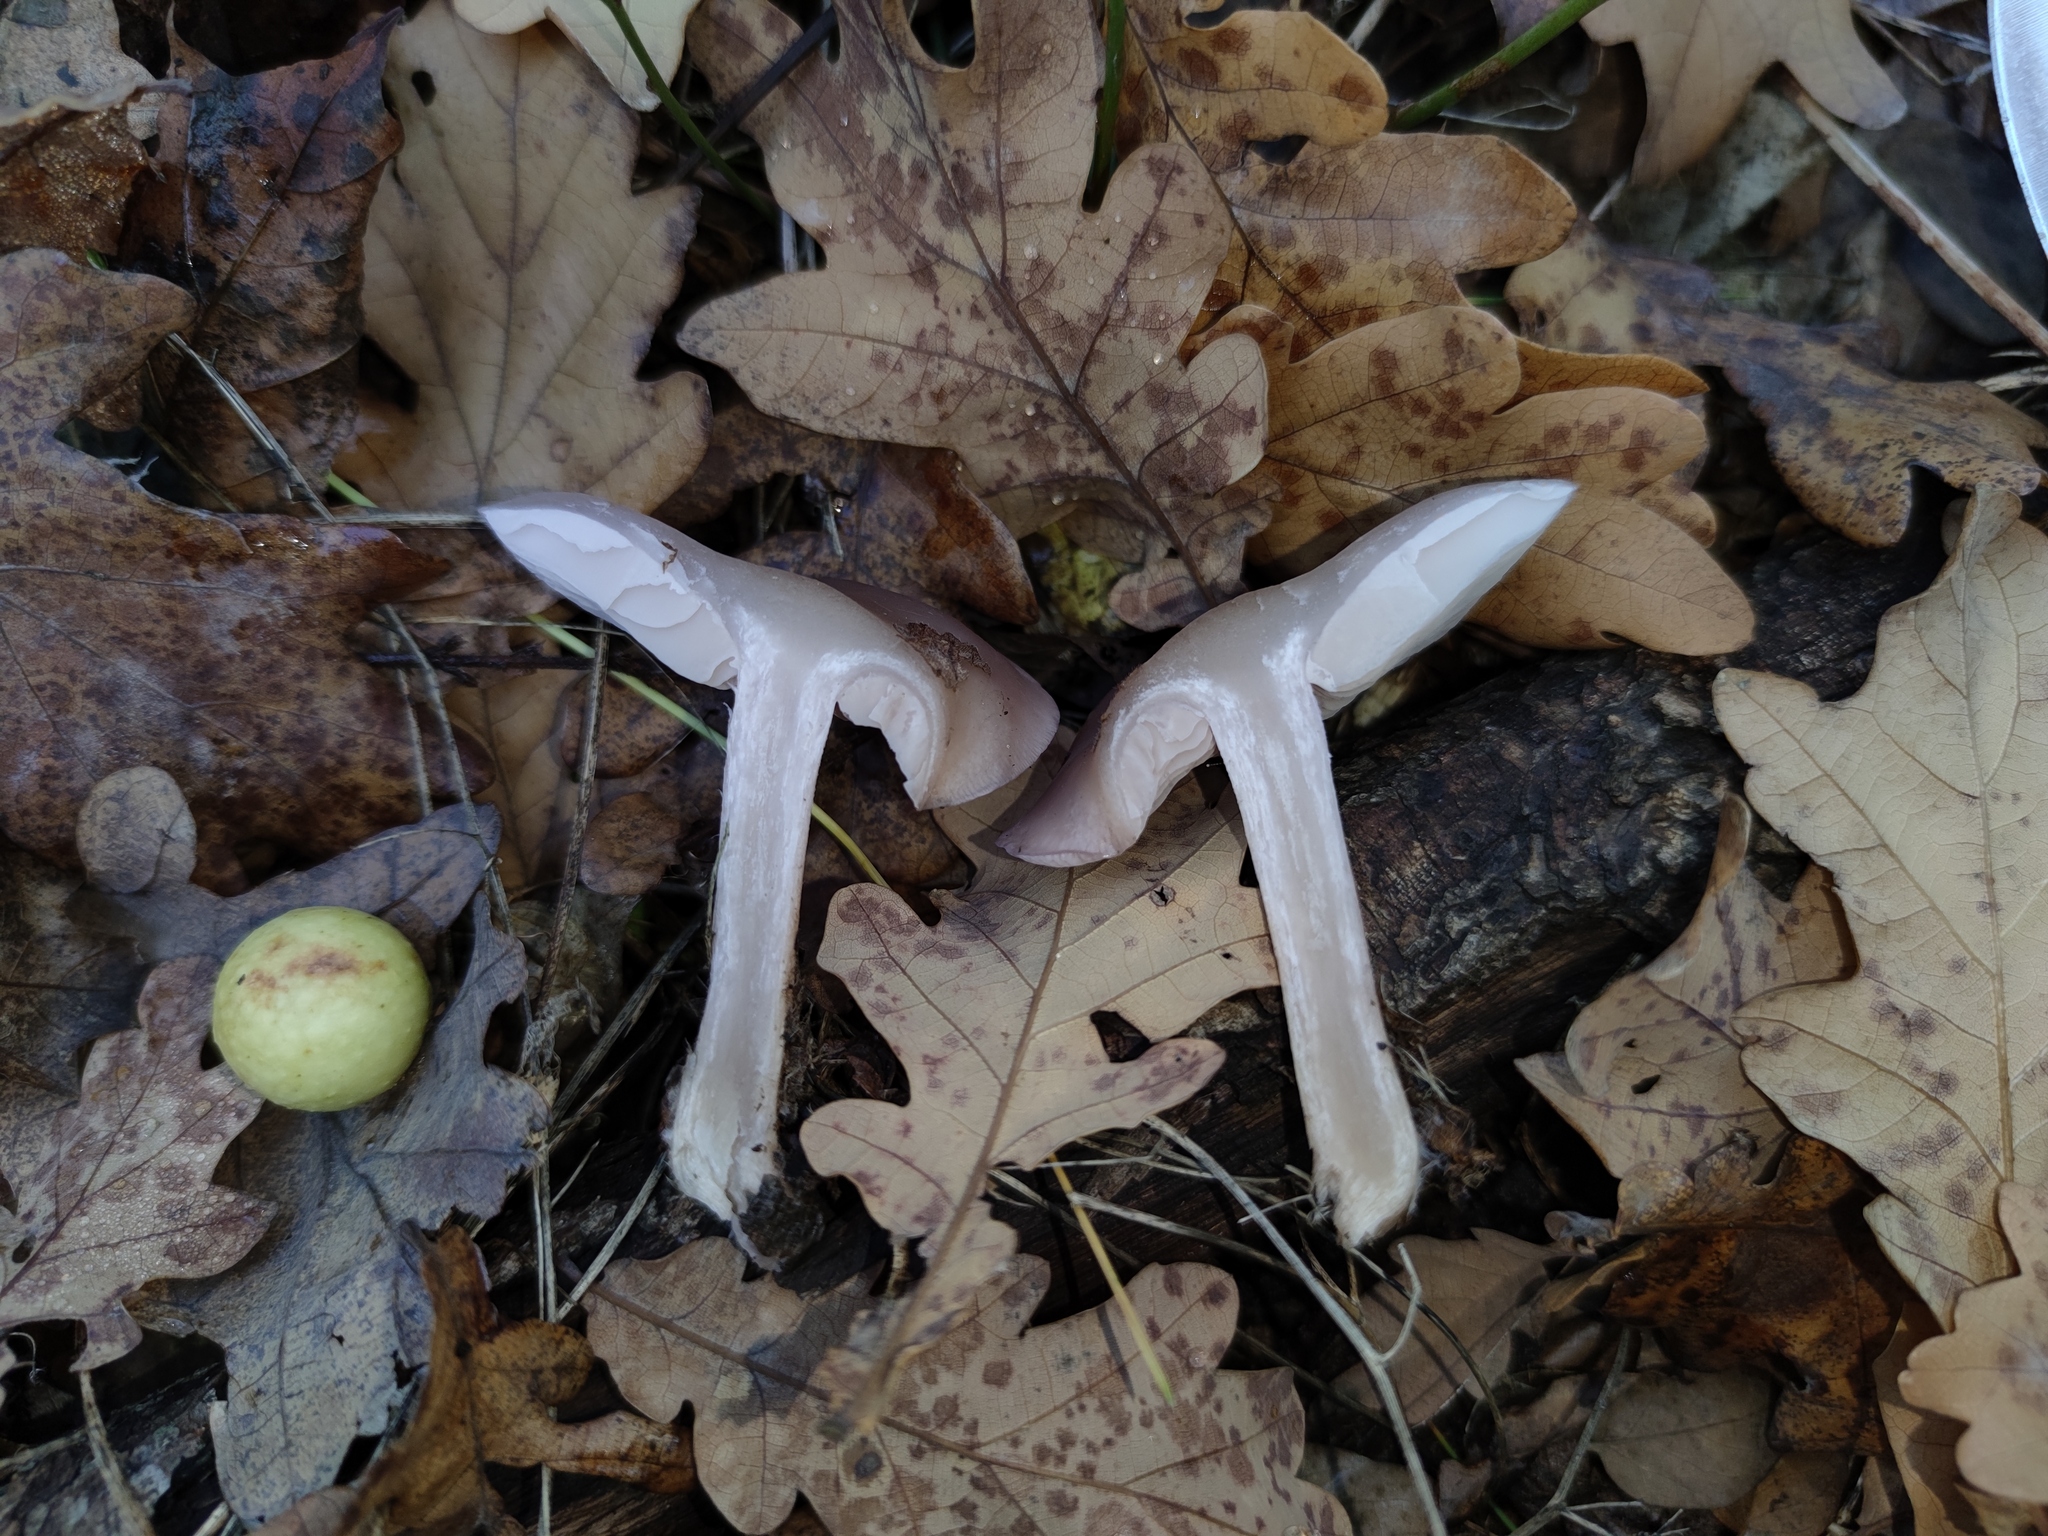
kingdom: Fungi
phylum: Basidiomycota
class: Agaricomycetes
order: Agaricales
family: Tricholomataceae
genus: Collybia
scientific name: Collybia
